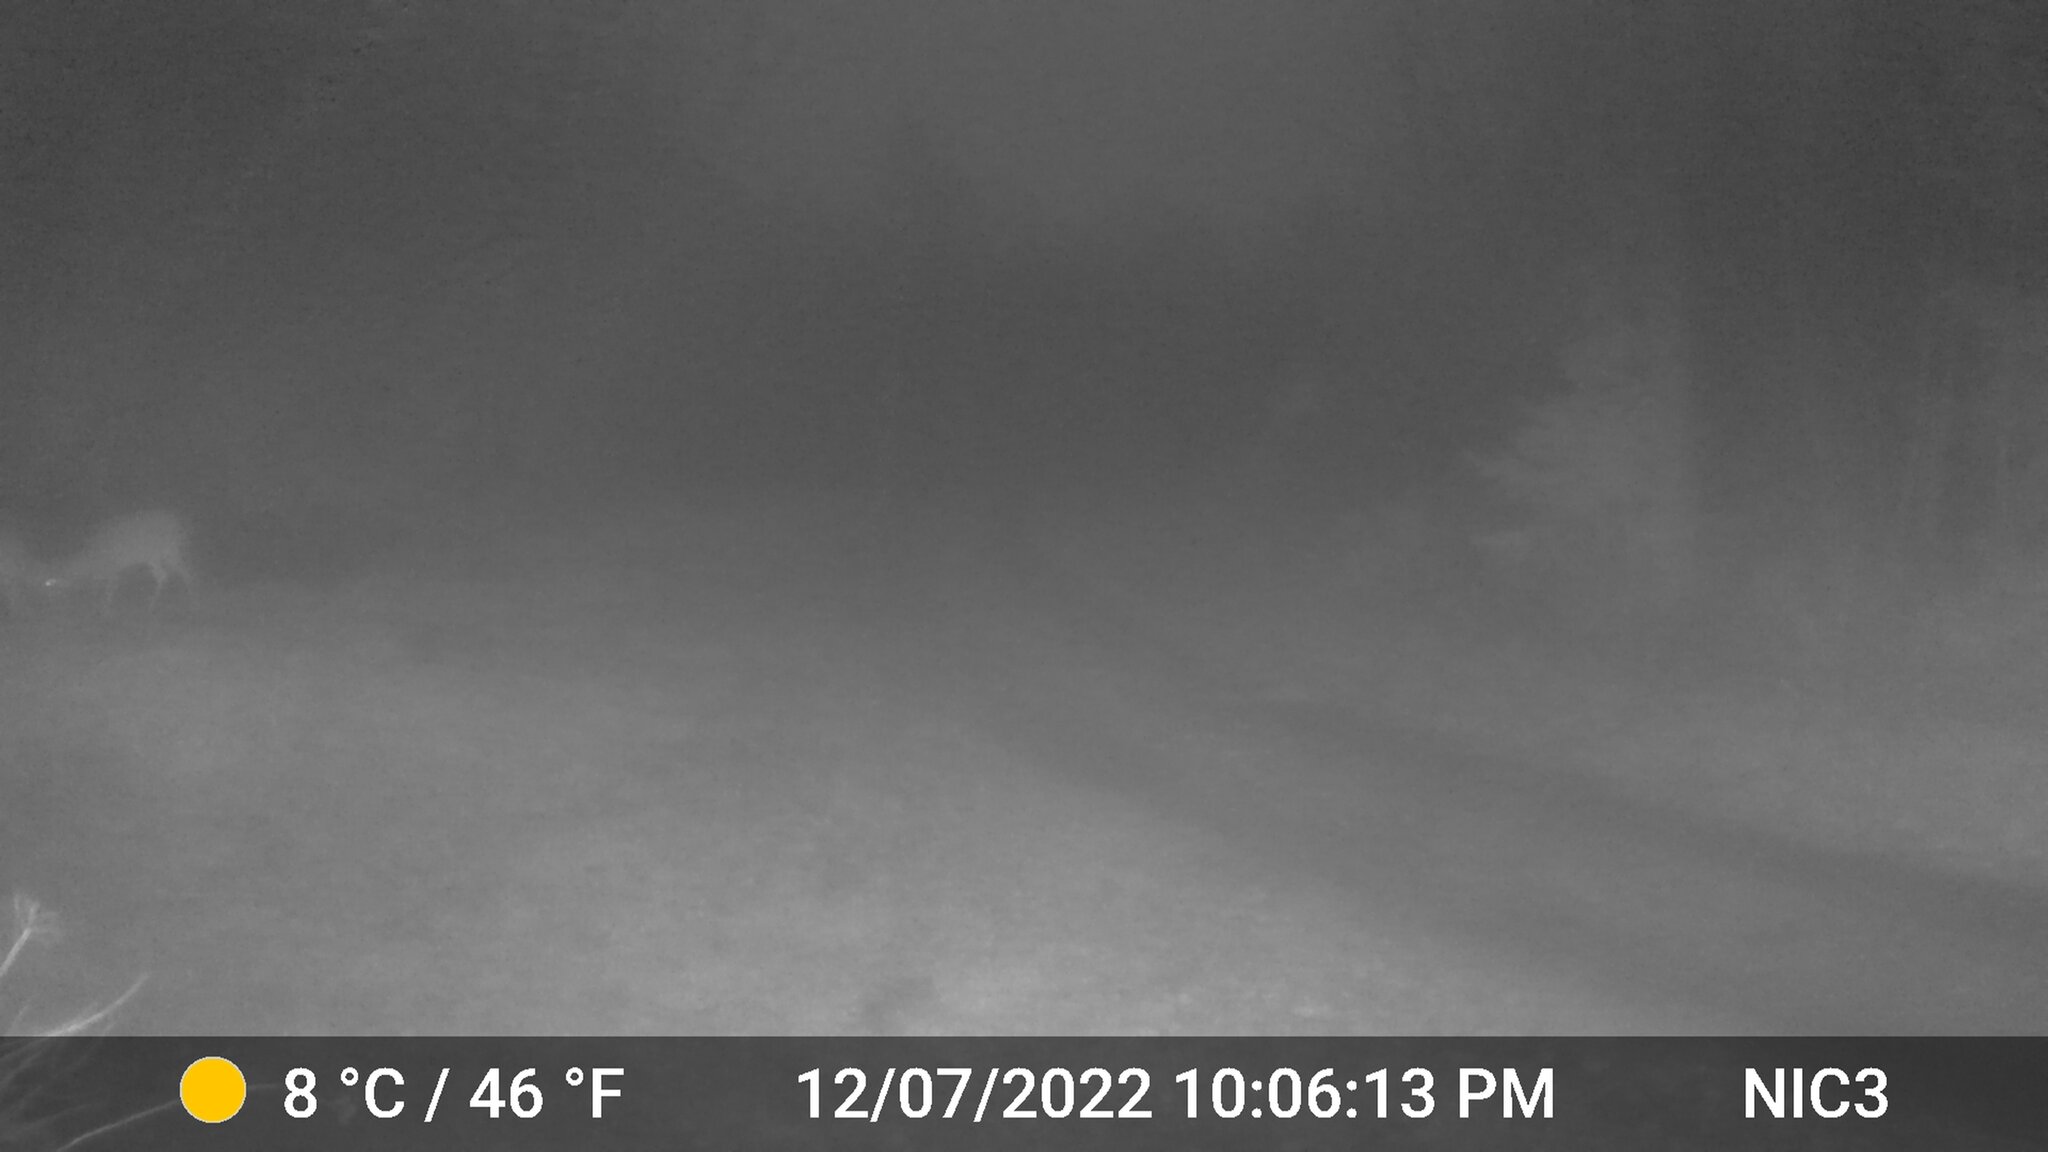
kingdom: Animalia
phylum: Chordata
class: Mammalia
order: Artiodactyla
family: Cervidae
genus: Odocoileus
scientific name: Odocoileus virginianus
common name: White-tailed deer
